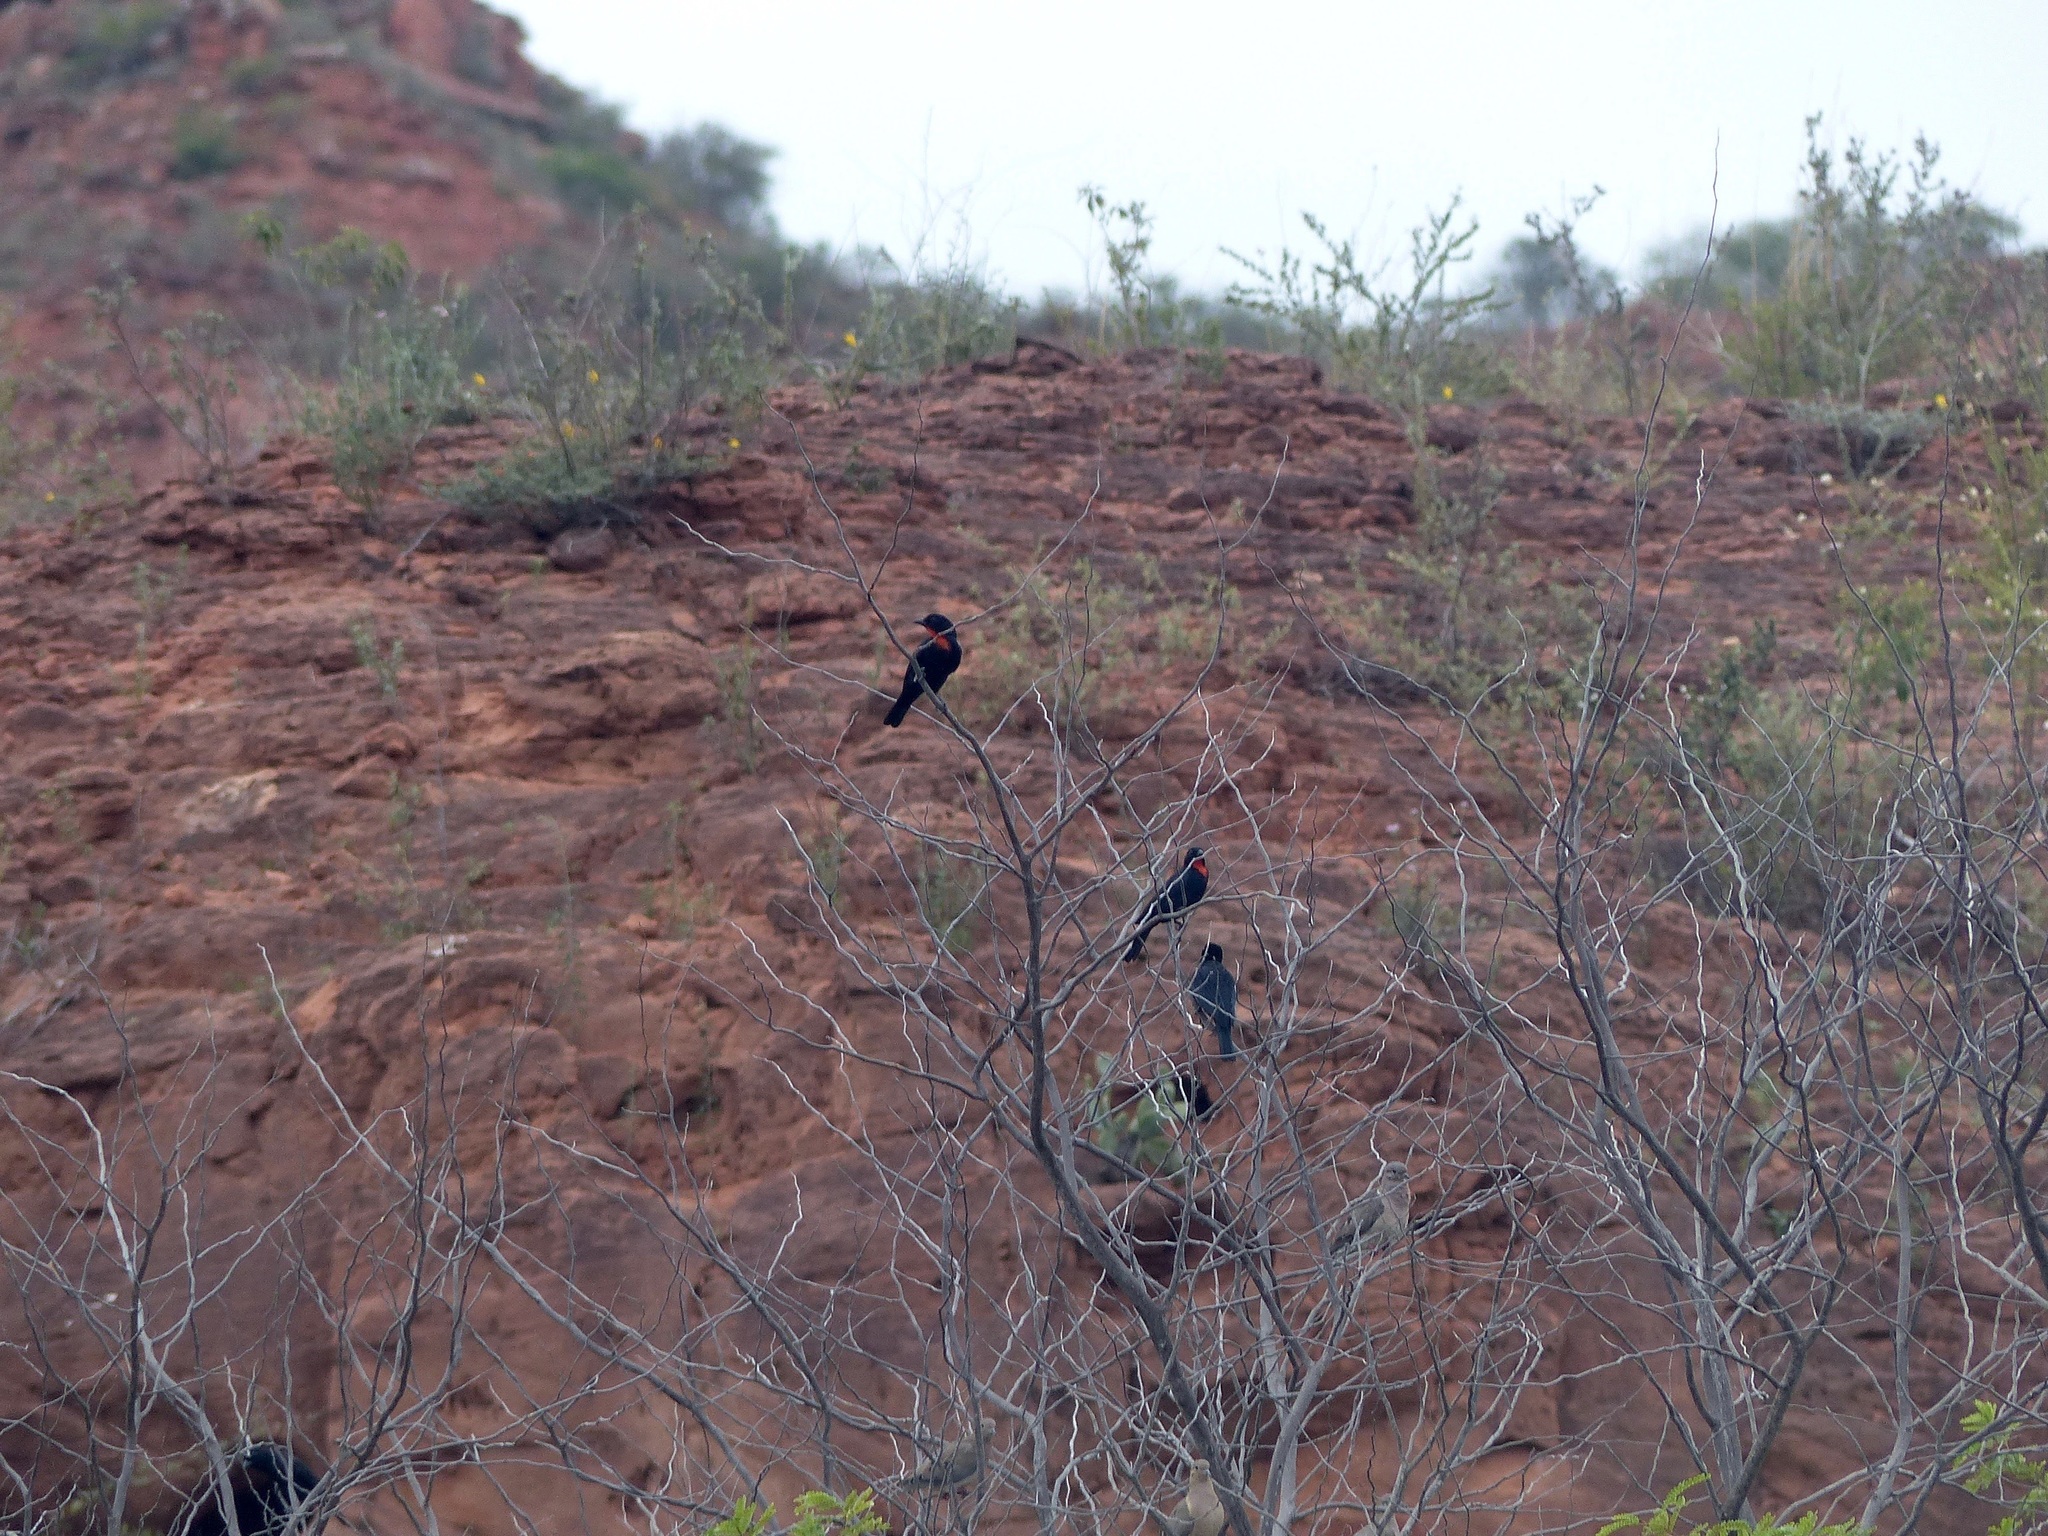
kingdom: Animalia
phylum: Chordata
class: Aves
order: Passeriformes
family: Thraupidae
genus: Compsothraupis
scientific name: Compsothraupis loricata
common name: Scarlet-throated tanager
